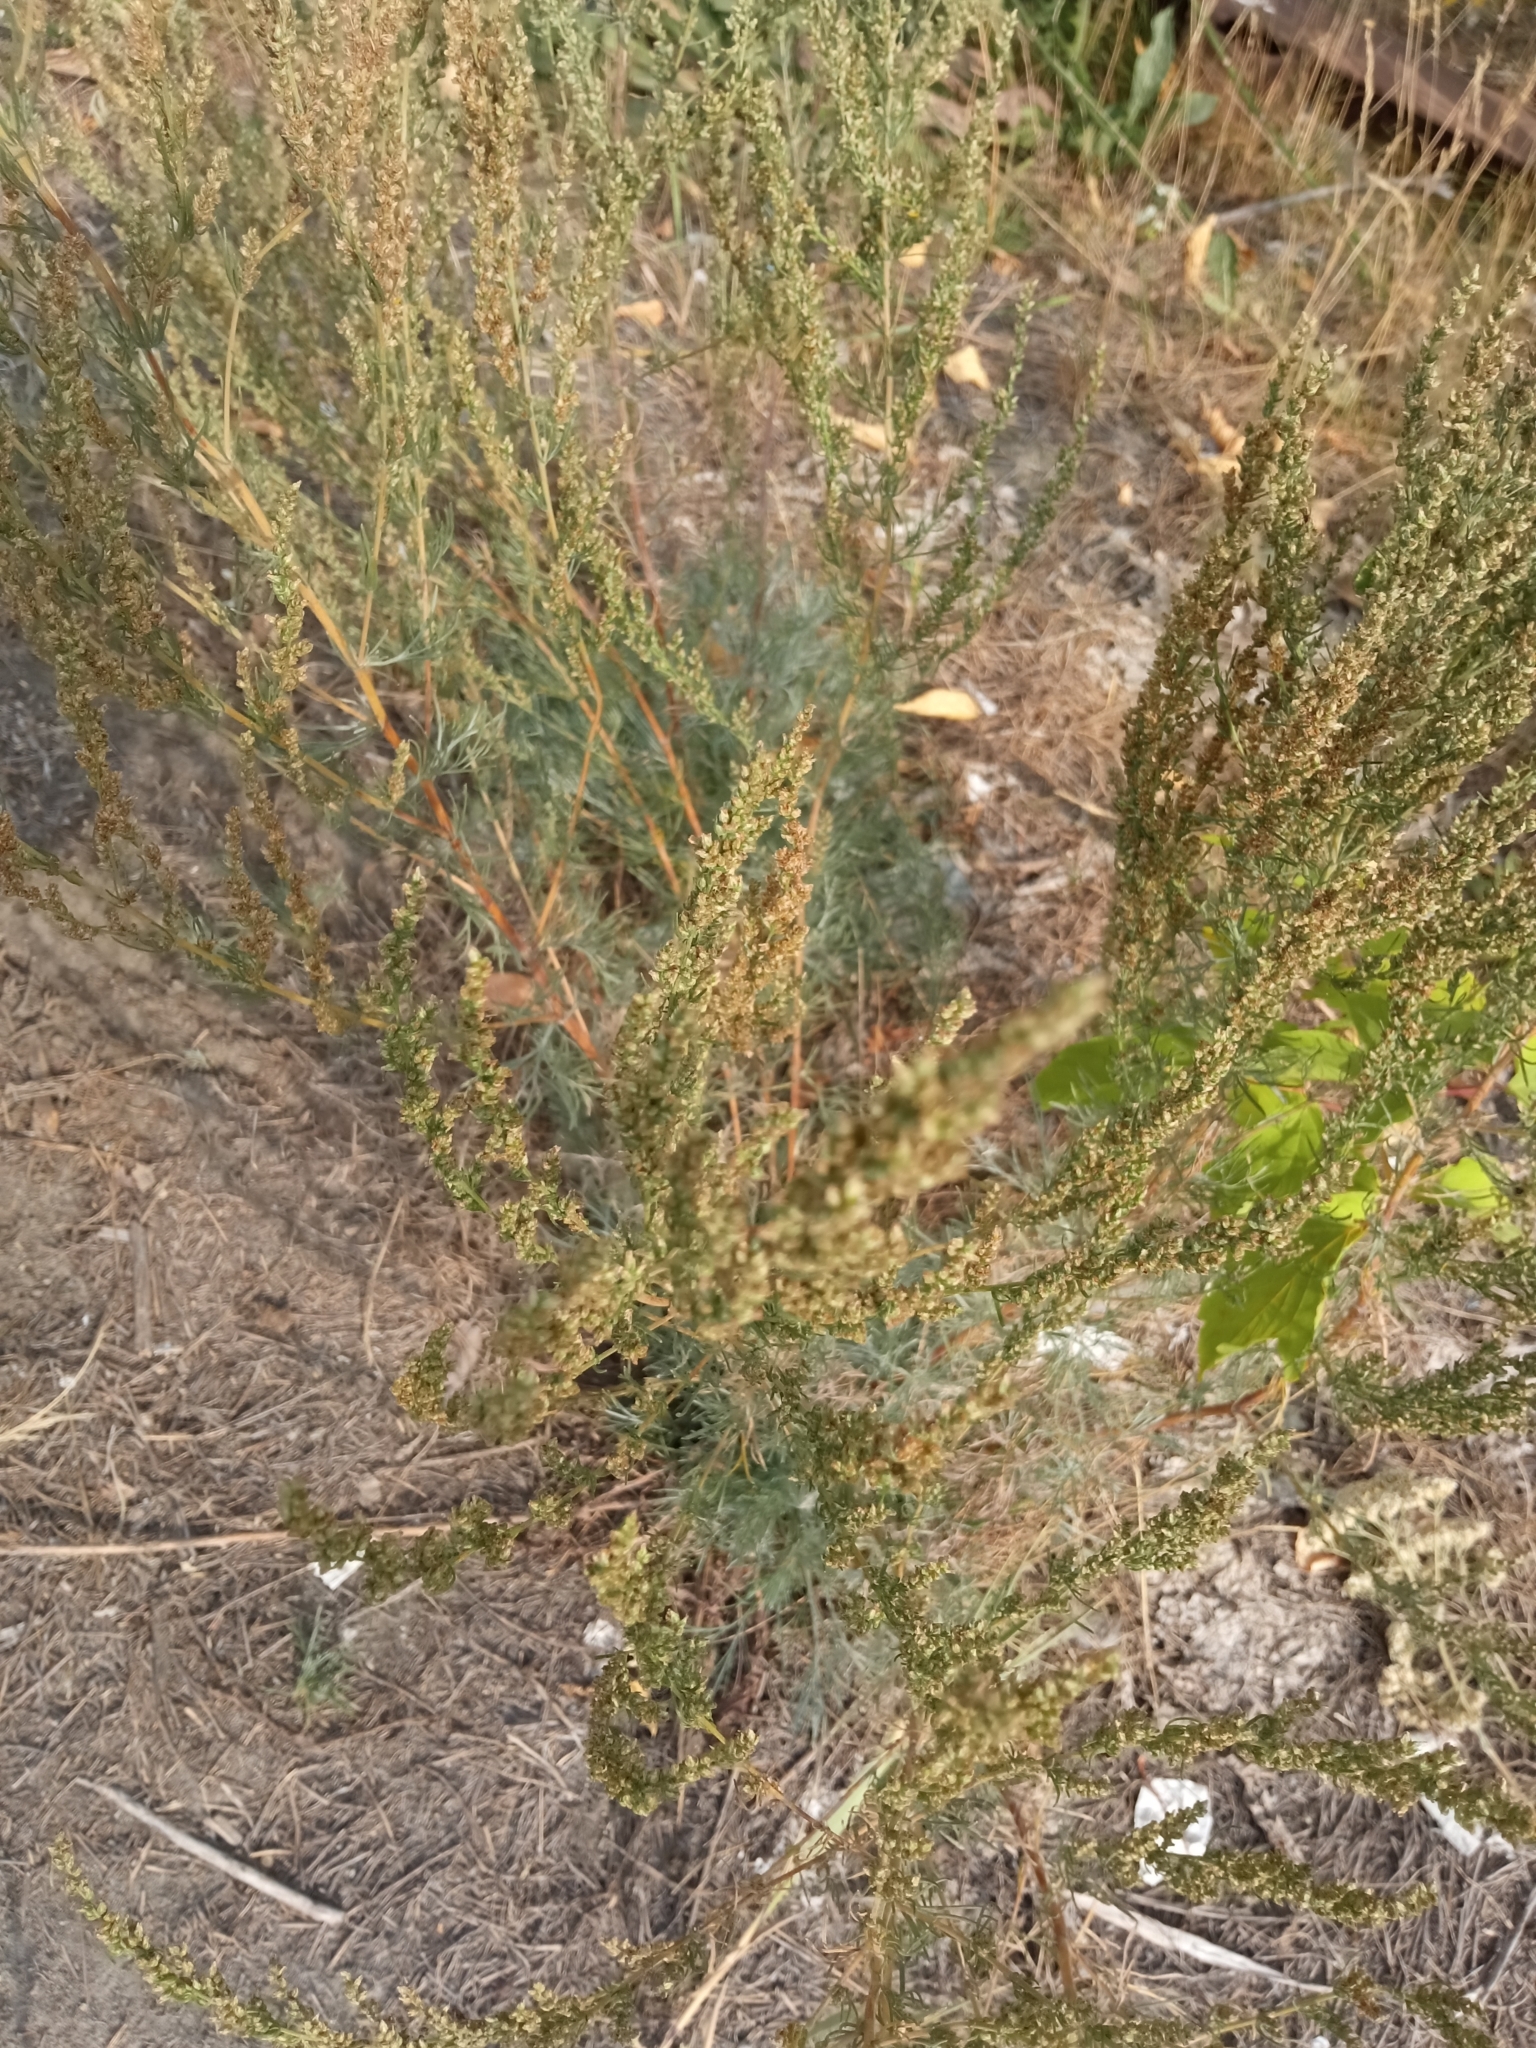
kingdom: Plantae
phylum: Tracheophyta
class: Magnoliopsida
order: Asterales
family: Asteraceae
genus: Artemisia
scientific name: Artemisia campestris
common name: Field wormwood
